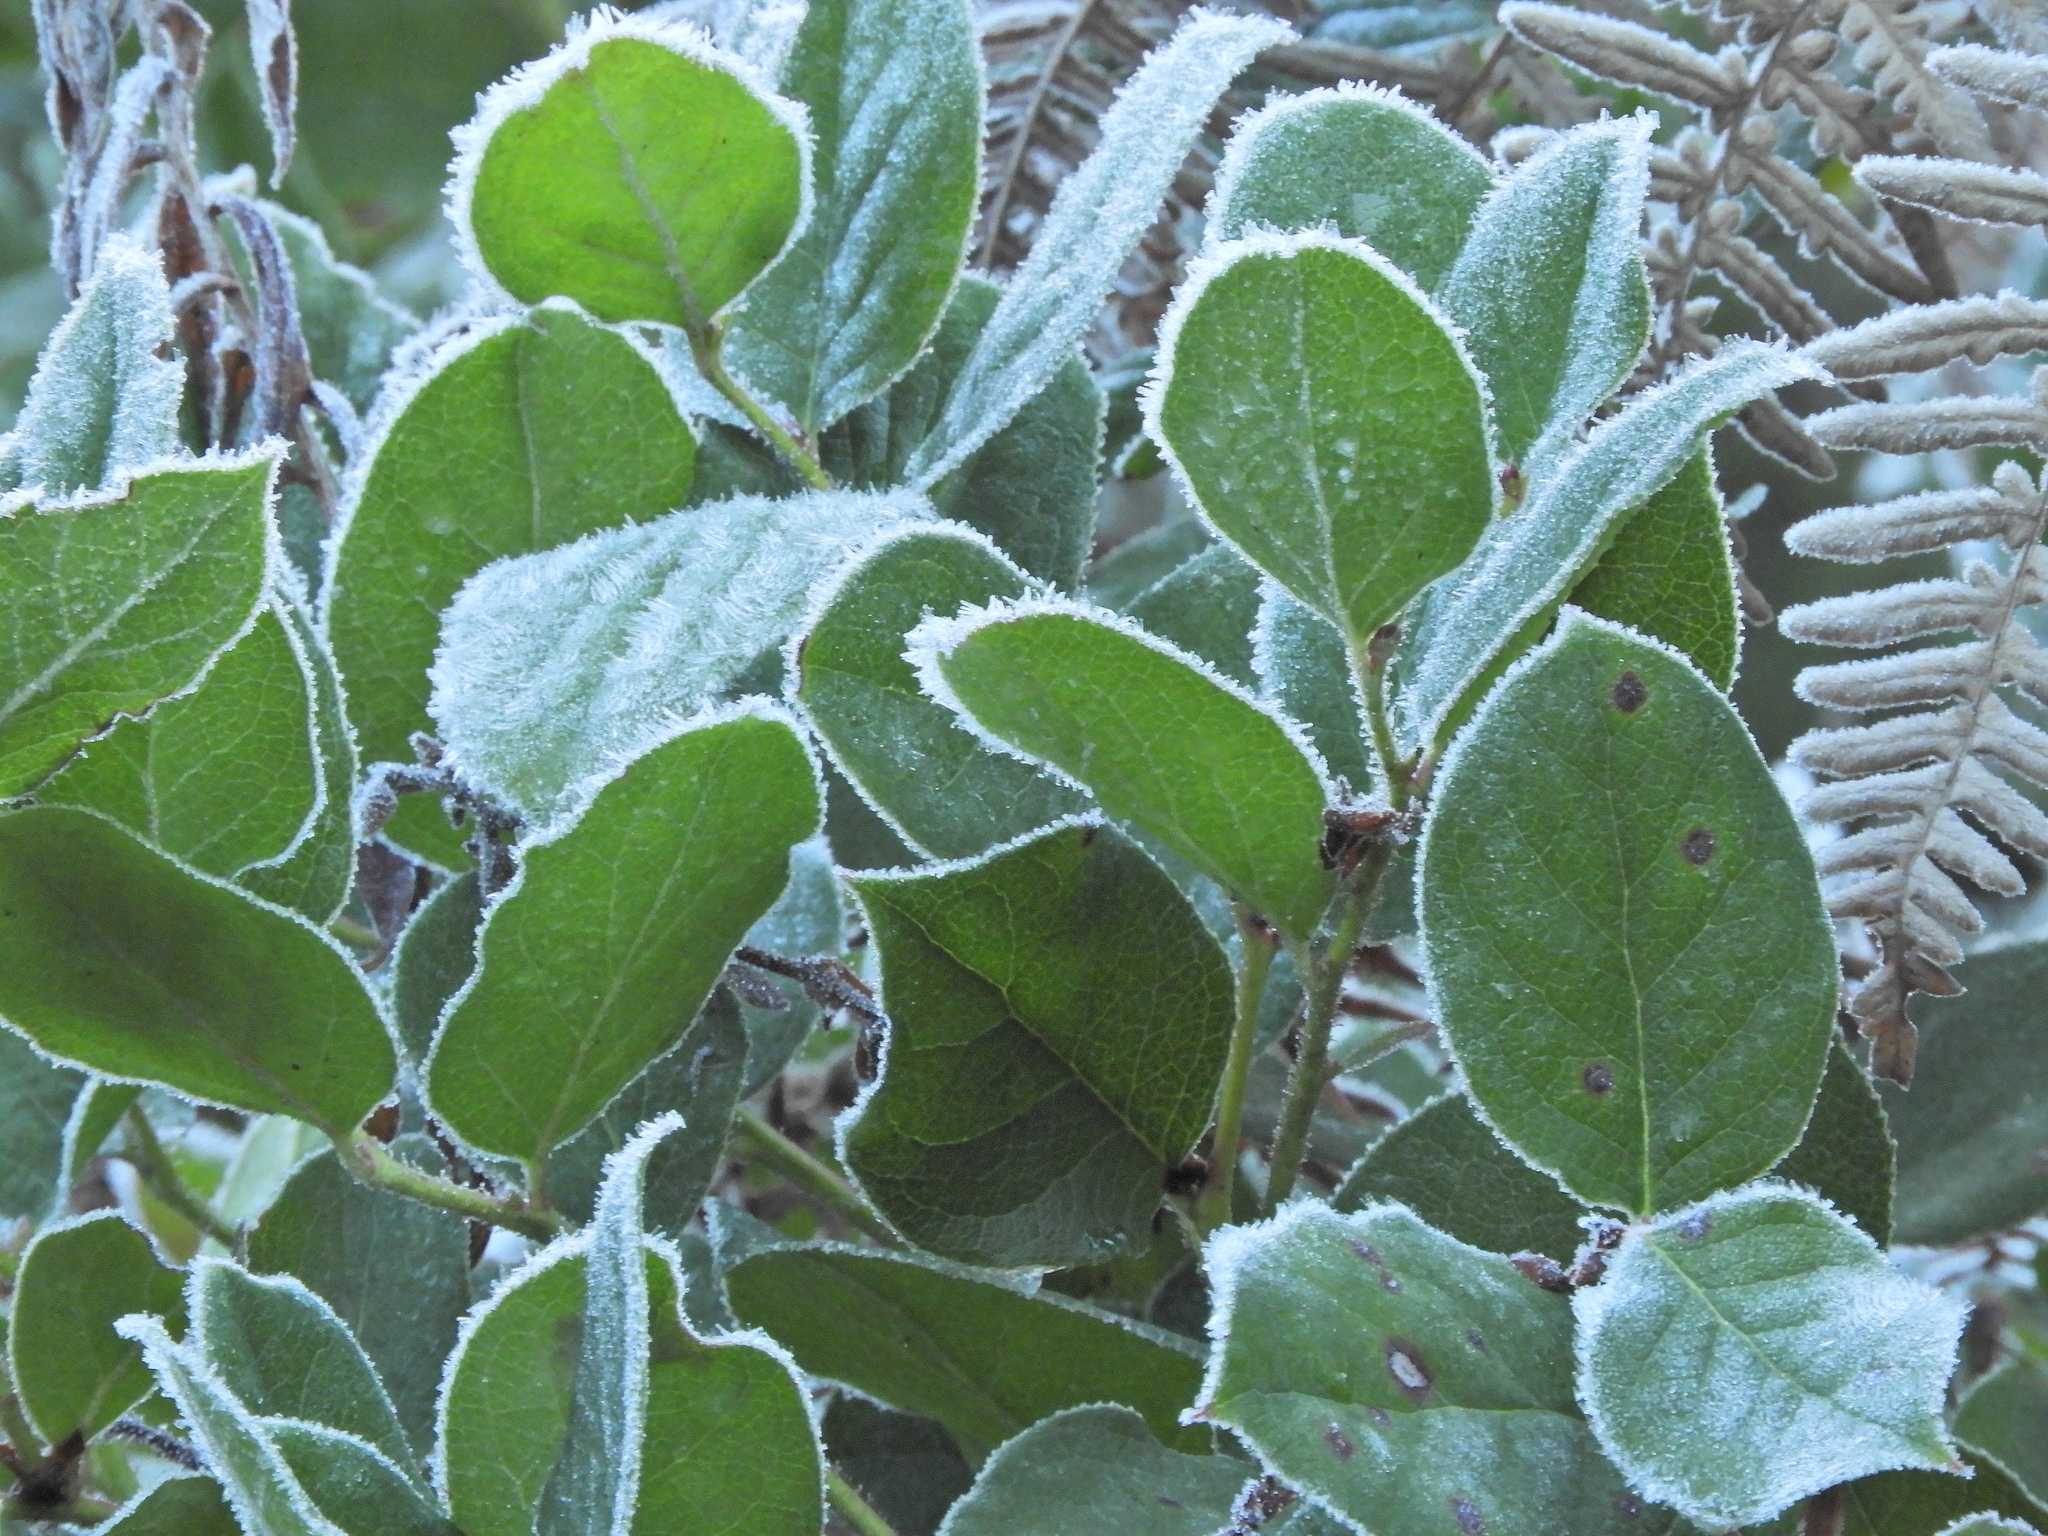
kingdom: Plantae
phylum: Tracheophyta
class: Magnoliopsida
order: Ericales
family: Ericaceae
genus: Gaultheria
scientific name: Gaultheria shallon
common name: Shallon
